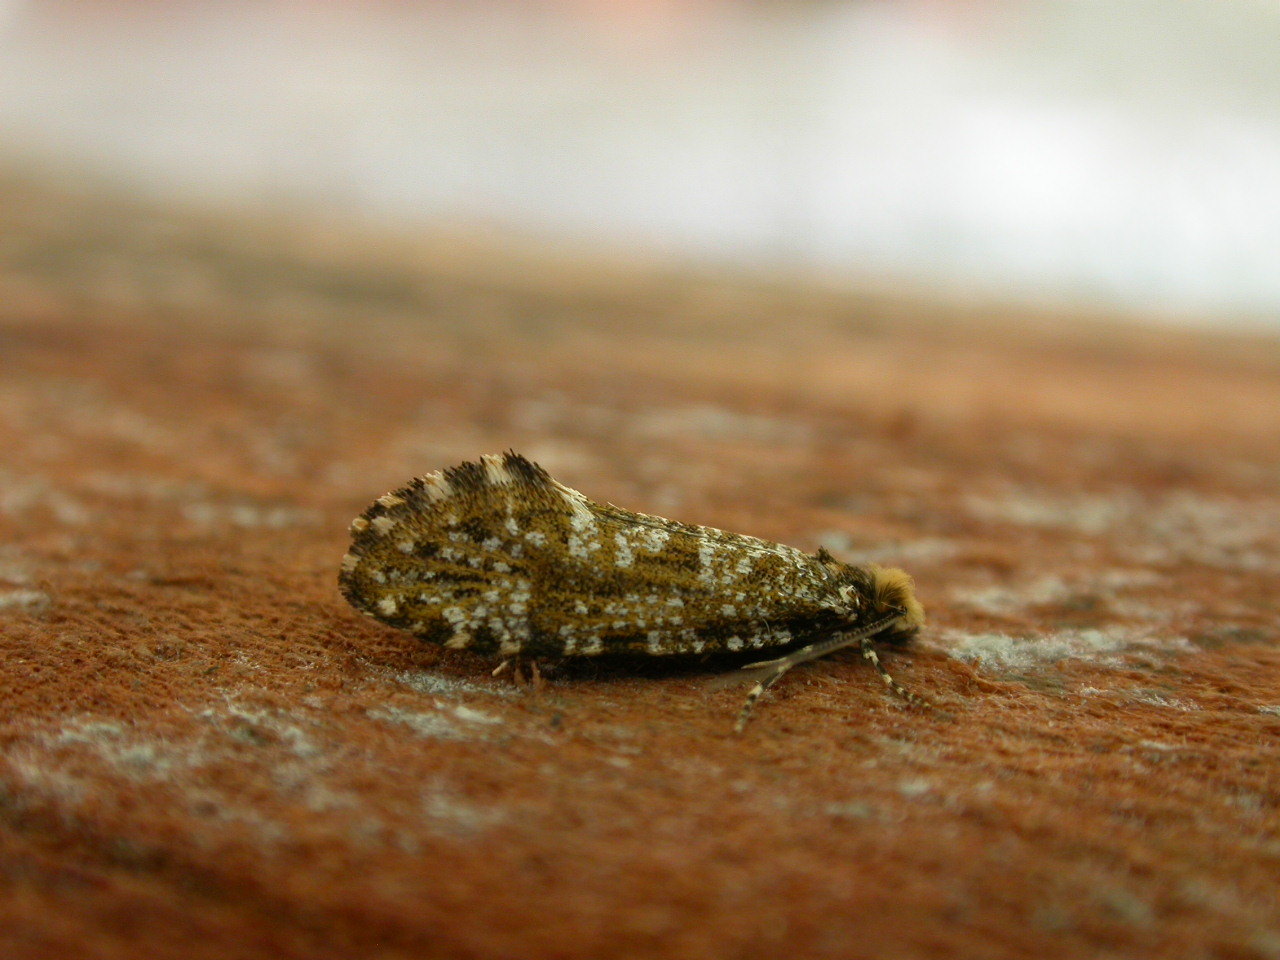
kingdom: Animalia
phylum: Arthropoda
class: Insecta
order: Lepidoptera
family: Tineidae
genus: Triaxomera
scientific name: Triaxomera parasitella
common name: Large brindled clothes
